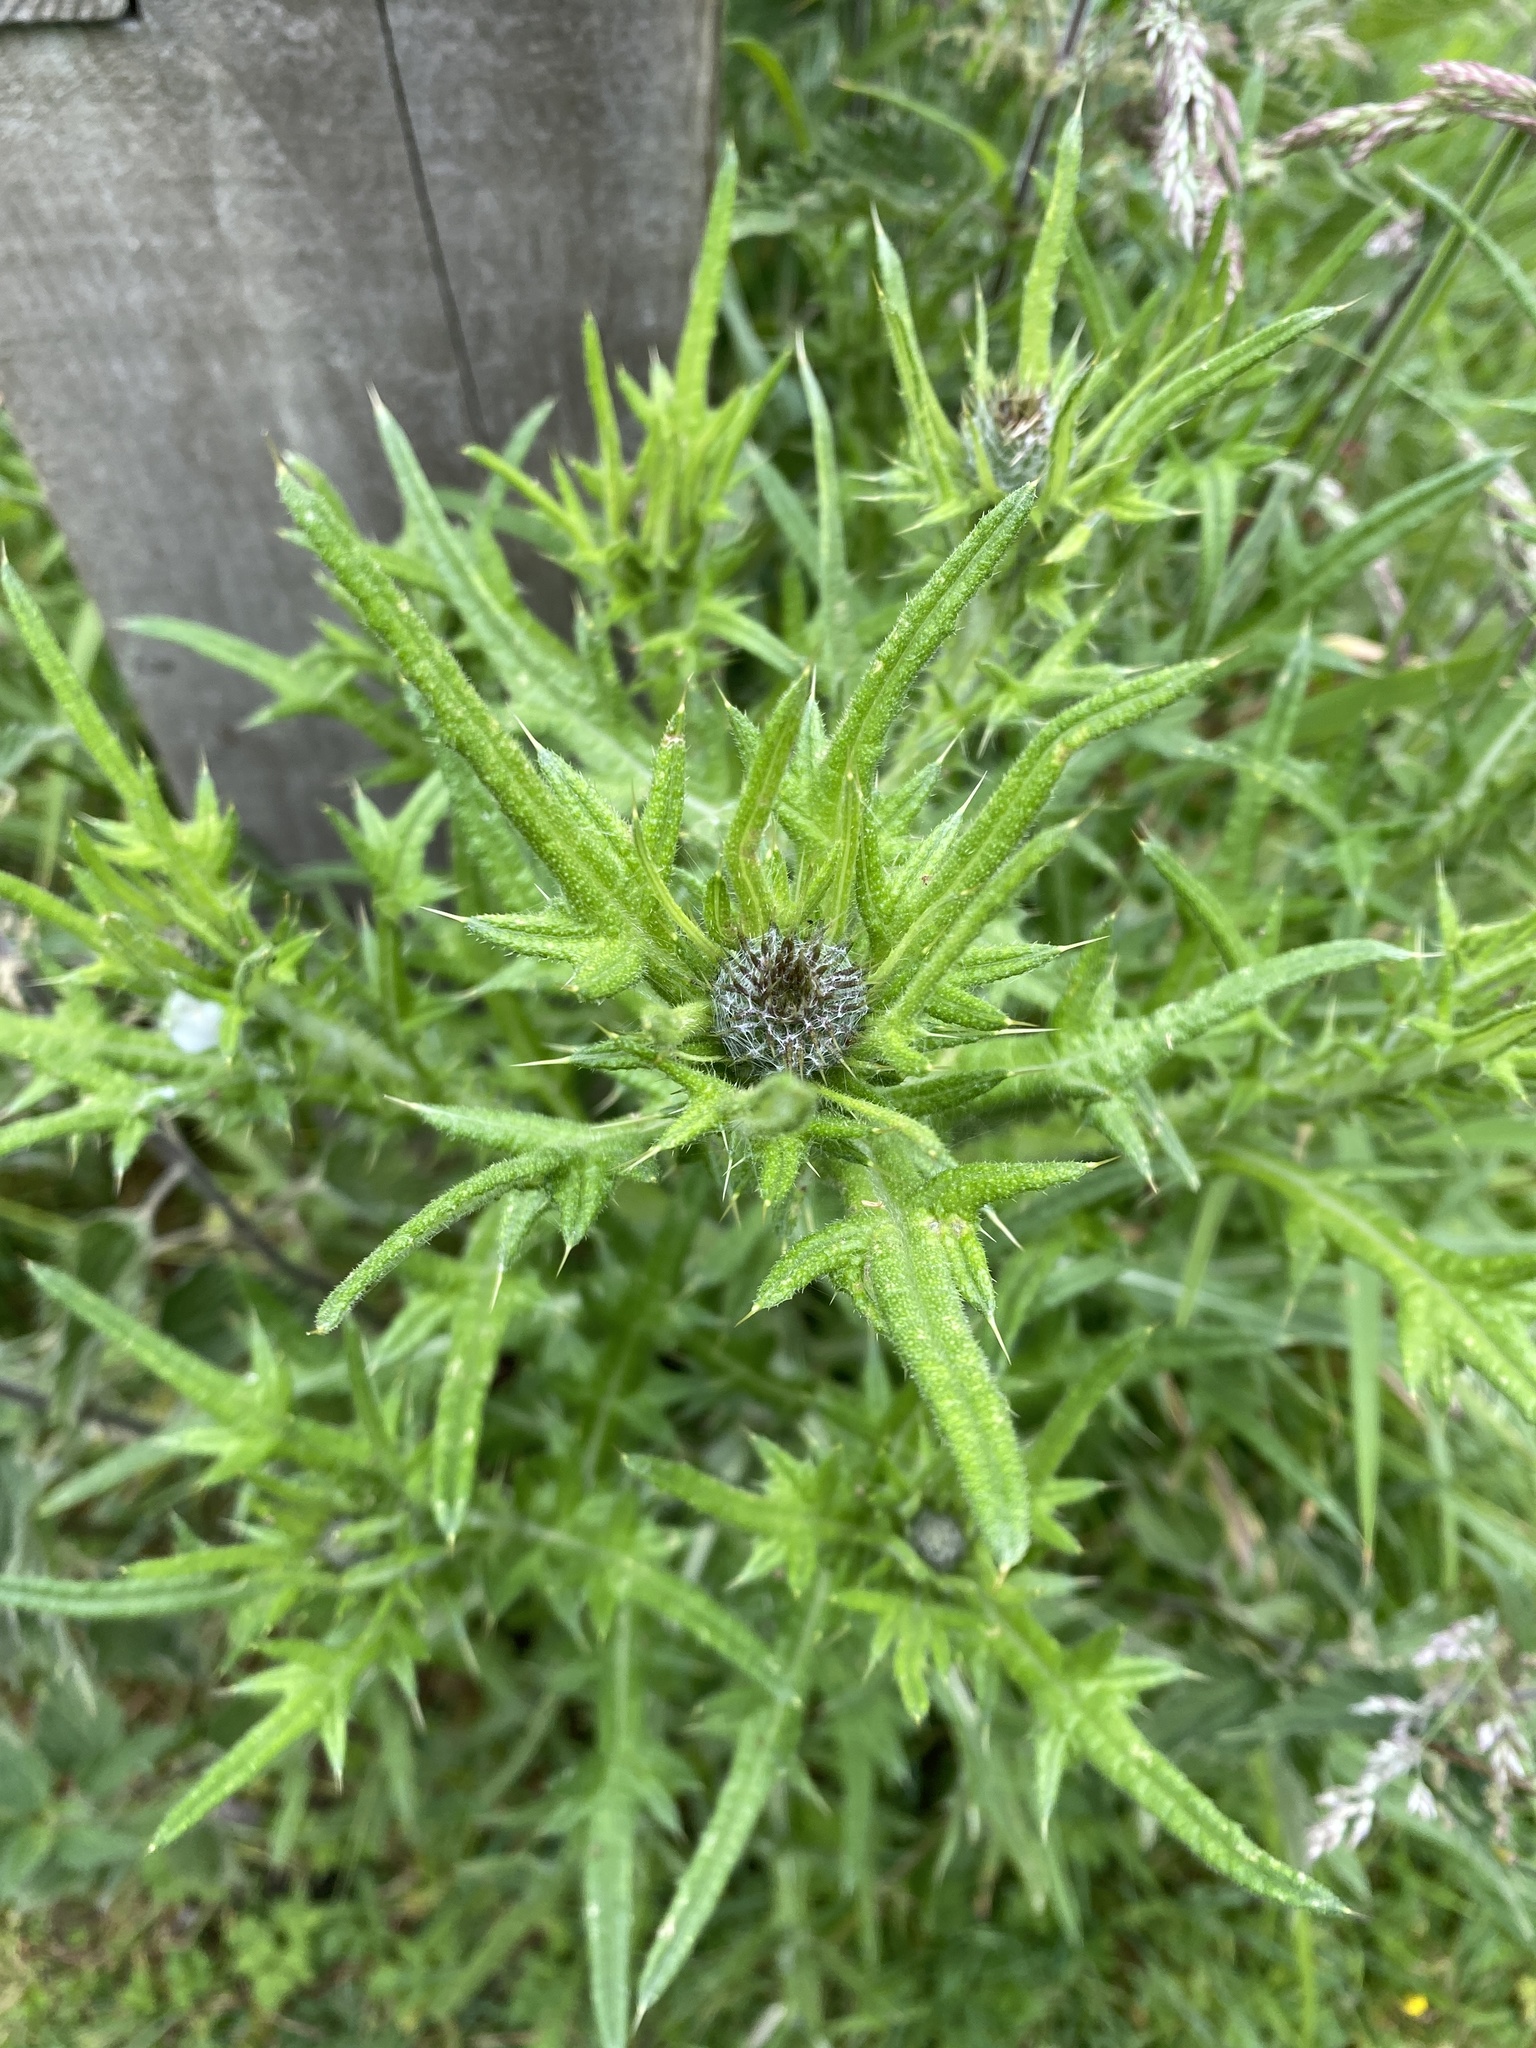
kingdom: Plantae
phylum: Tracheophyta
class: Magnoliopsida
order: Asterales
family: Asteraceae
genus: Cirsium
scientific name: Cirsium vulgare
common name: Bull thistle
